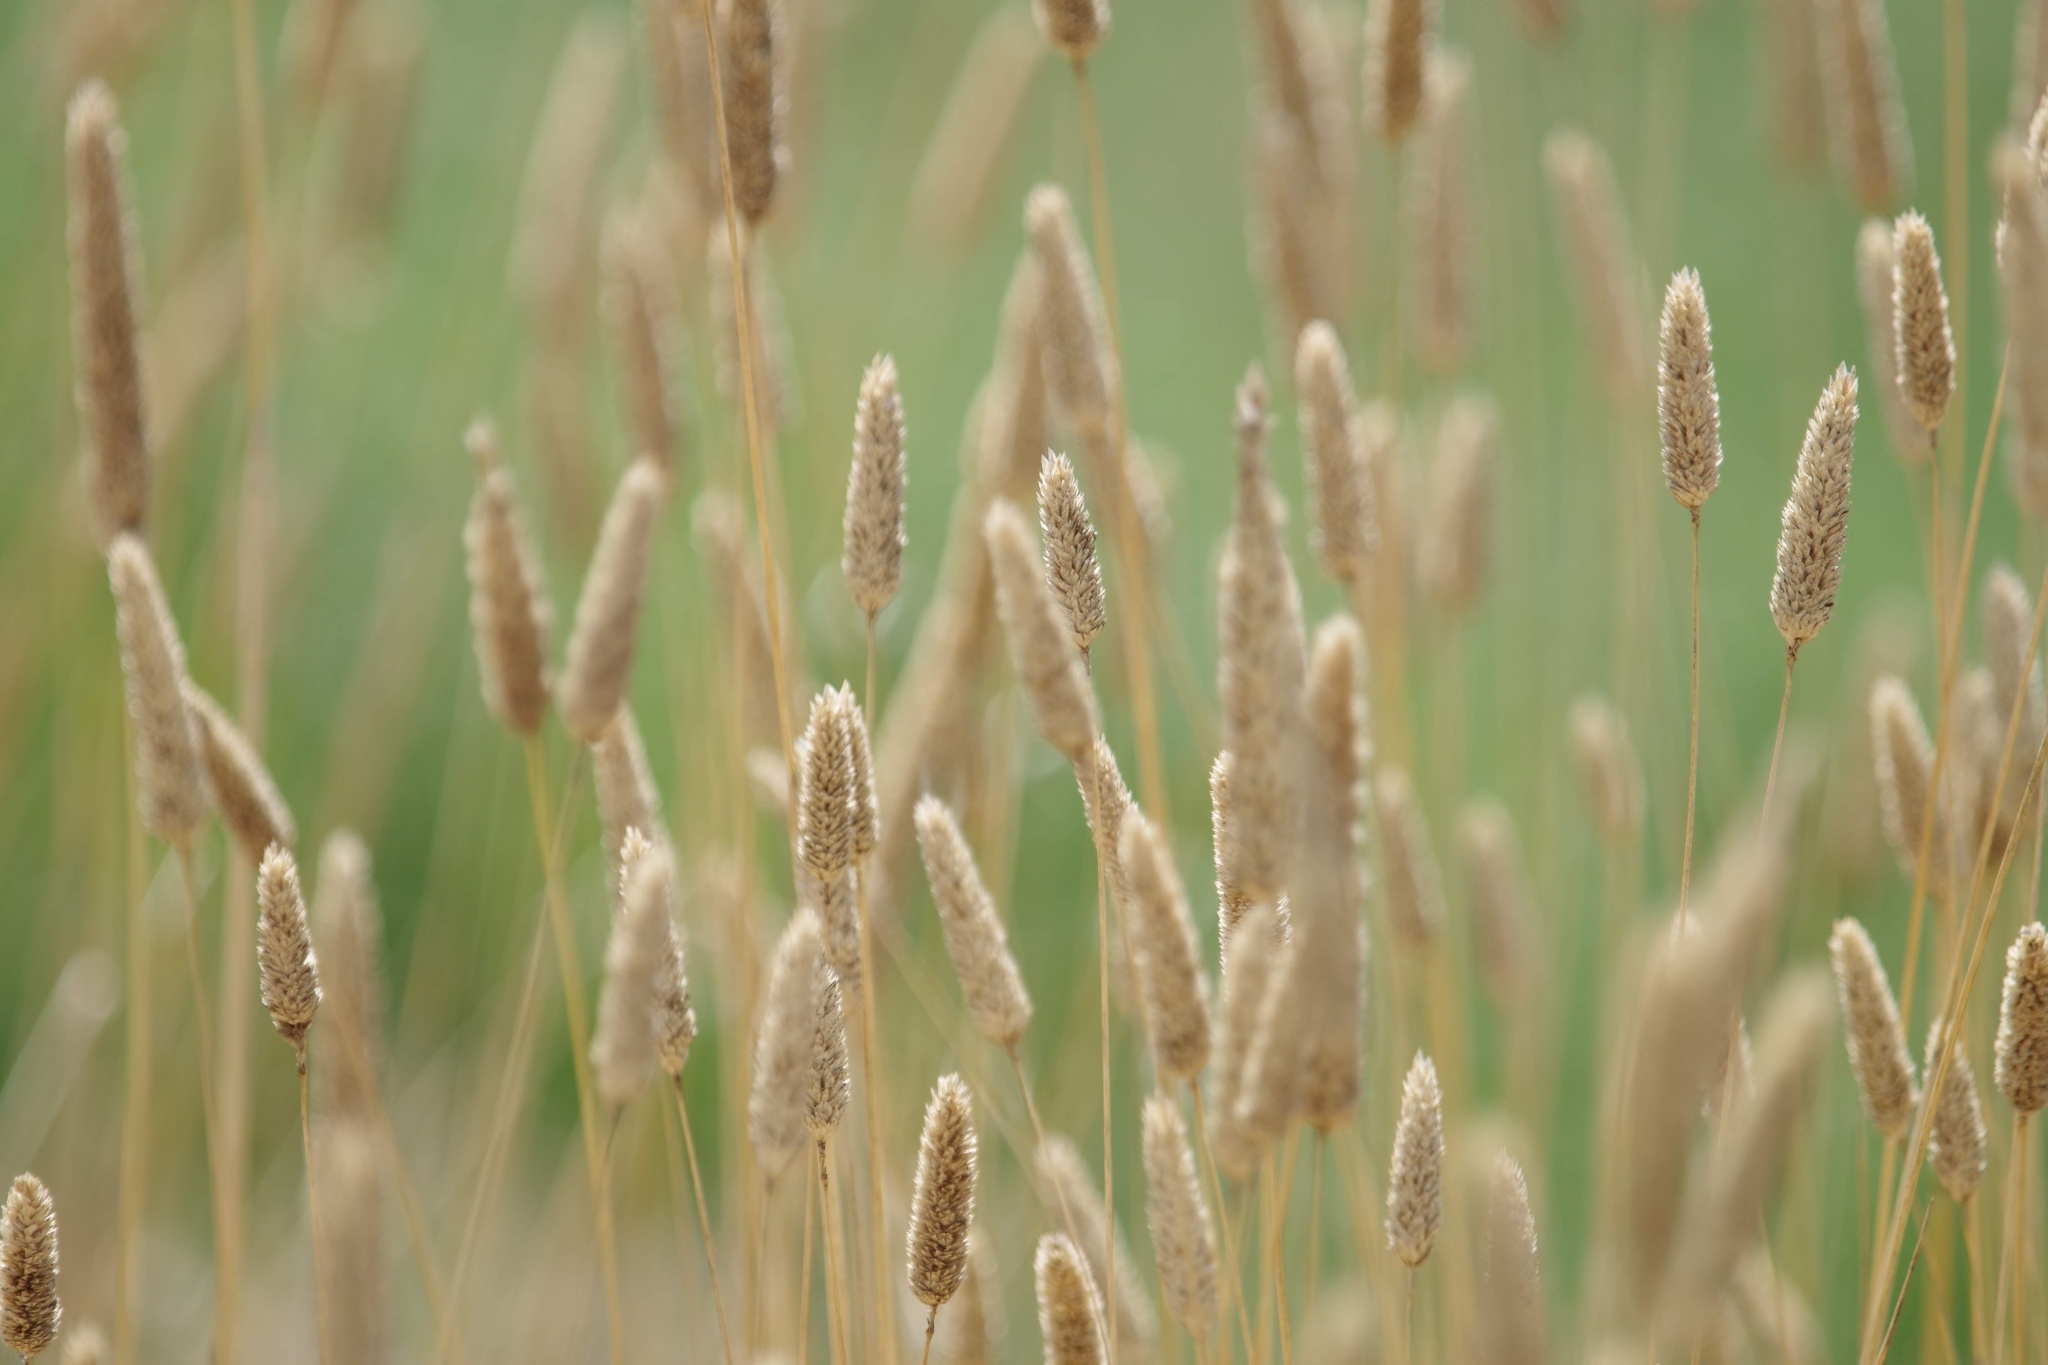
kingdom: Plantae
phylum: Tracheophyta
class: Liliopsida
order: Poales
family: Poaceae
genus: Phalaris
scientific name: Phalaris aquatica
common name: Bulbous canary-grass
